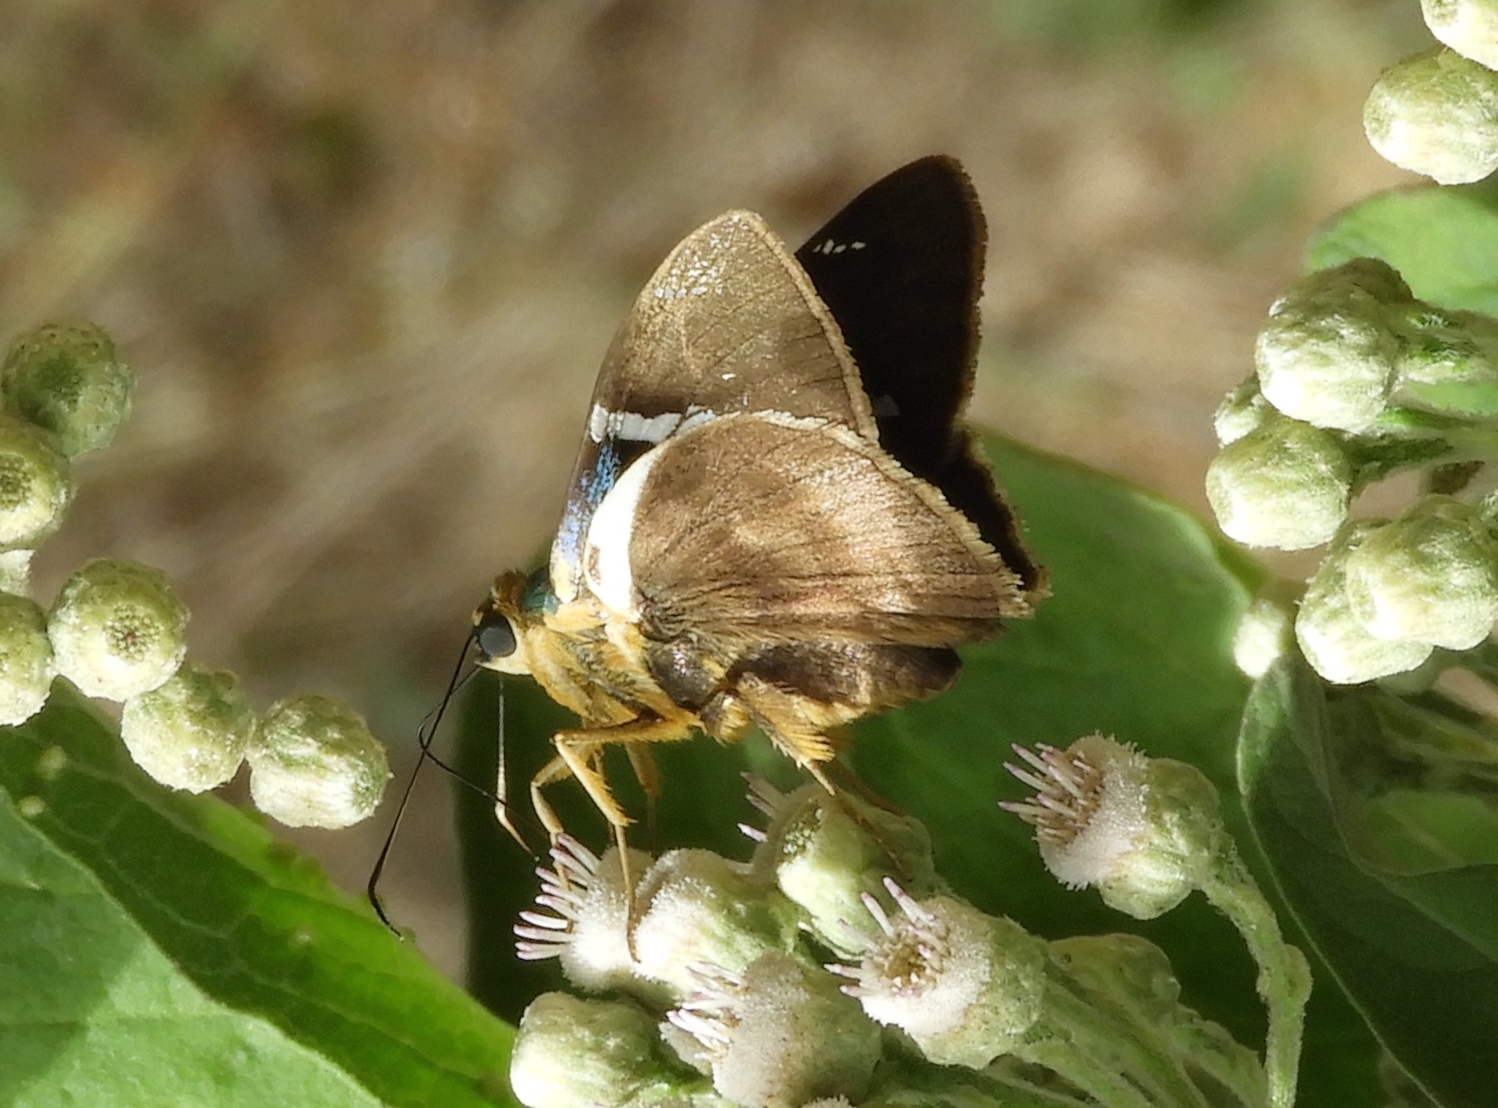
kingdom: Animalia
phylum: Arthropoda
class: Insecta
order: Lepidoptera
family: Hesperiidae
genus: Astraptes
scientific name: Astraptes fulgerator
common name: Two-barred flasher
